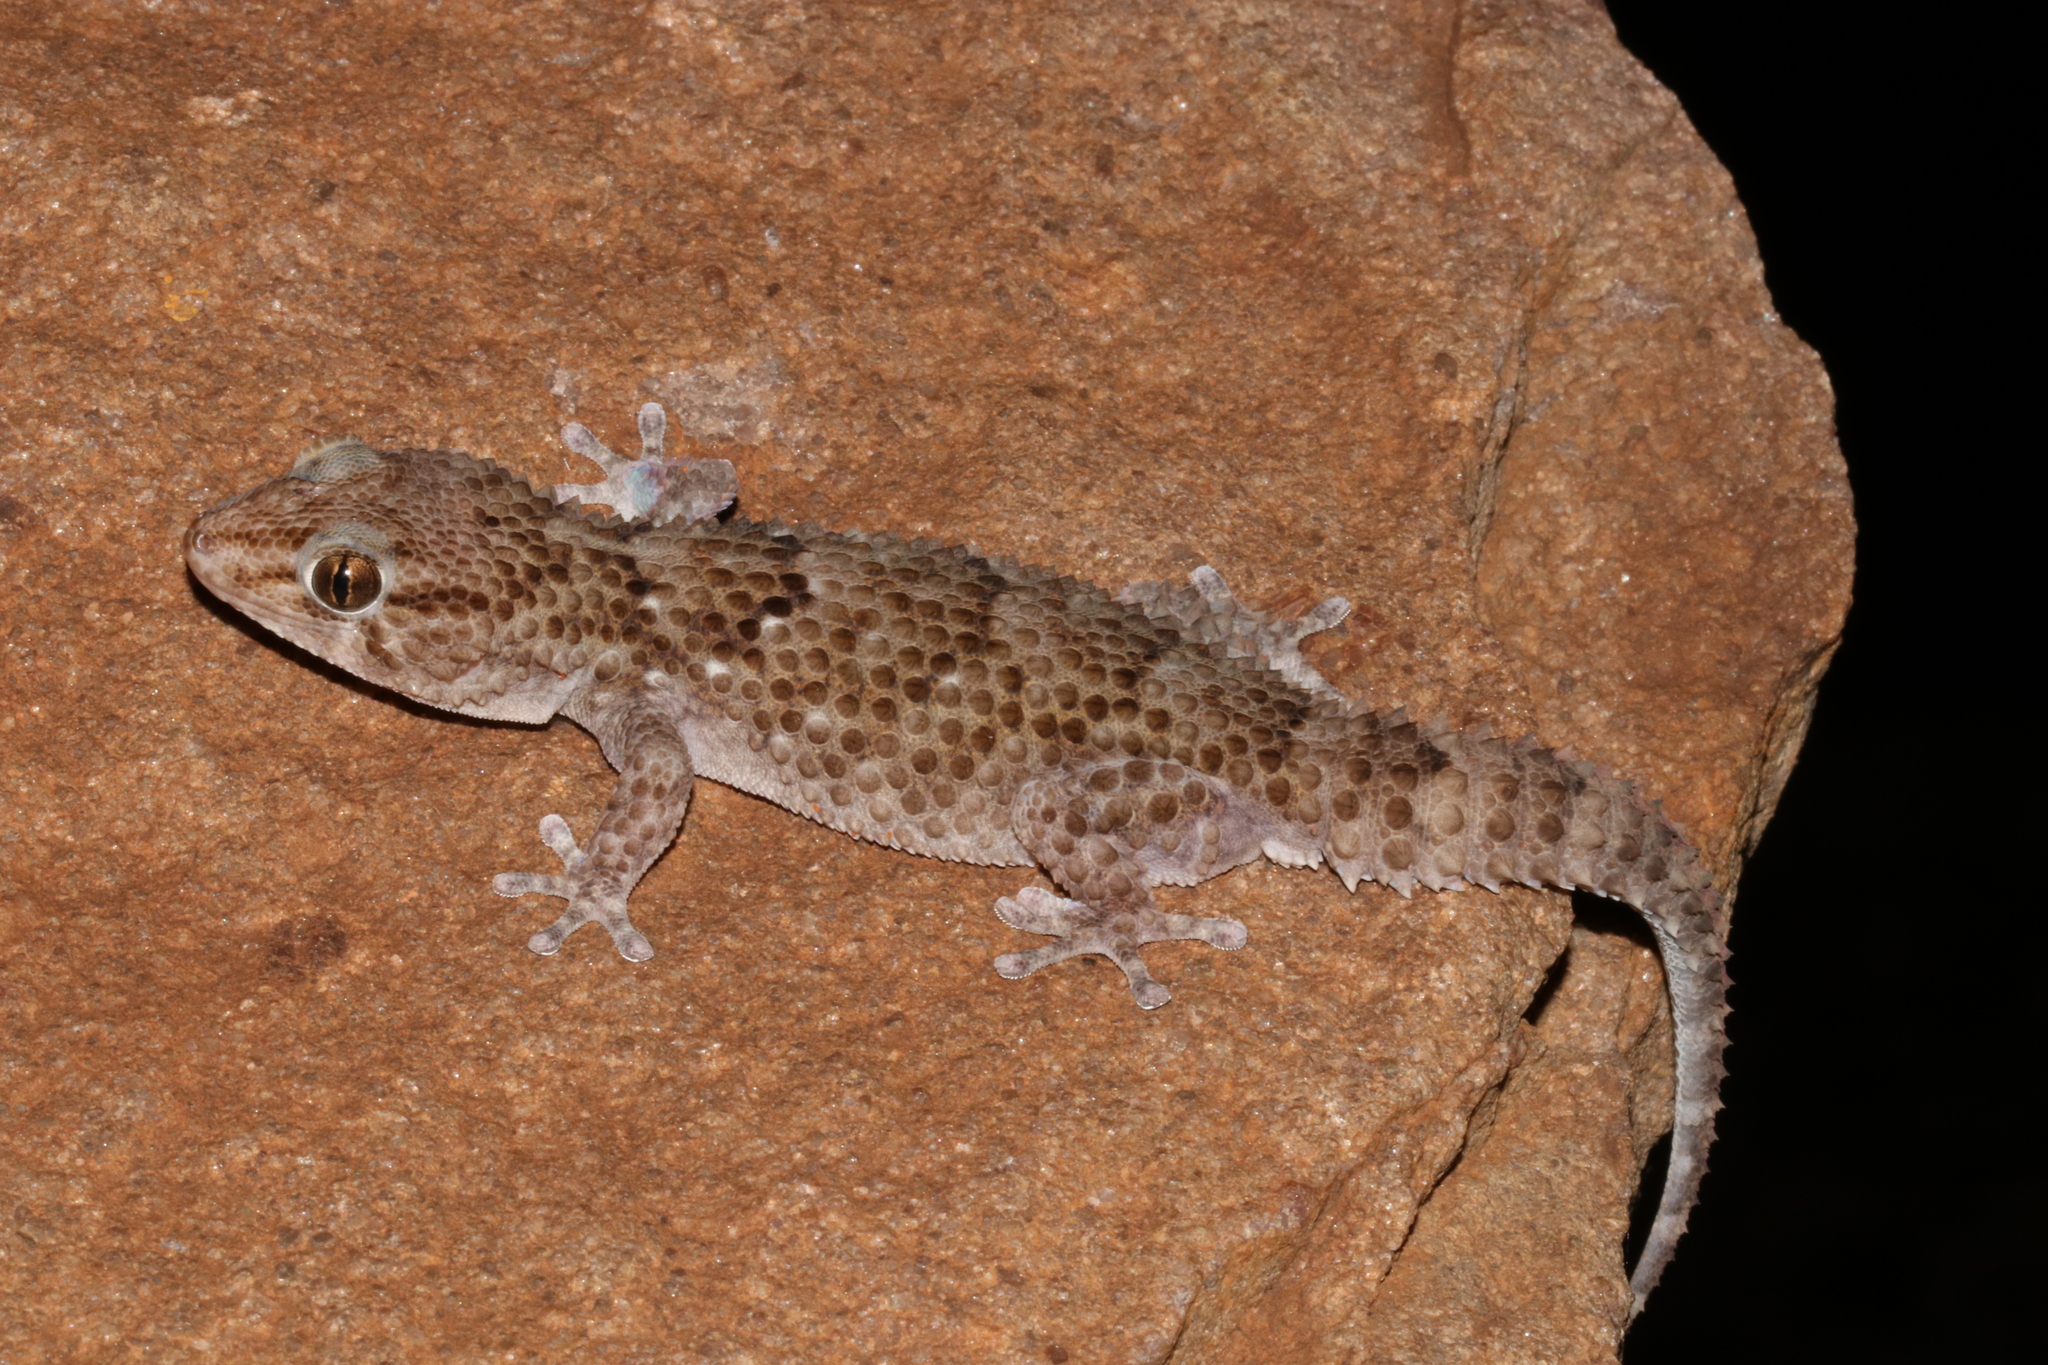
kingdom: Animalia
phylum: Chordata
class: Squamata
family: Gekkonidae
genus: Chondrodactylus
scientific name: Chondrodactylus turneri
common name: Turner’s gecko
